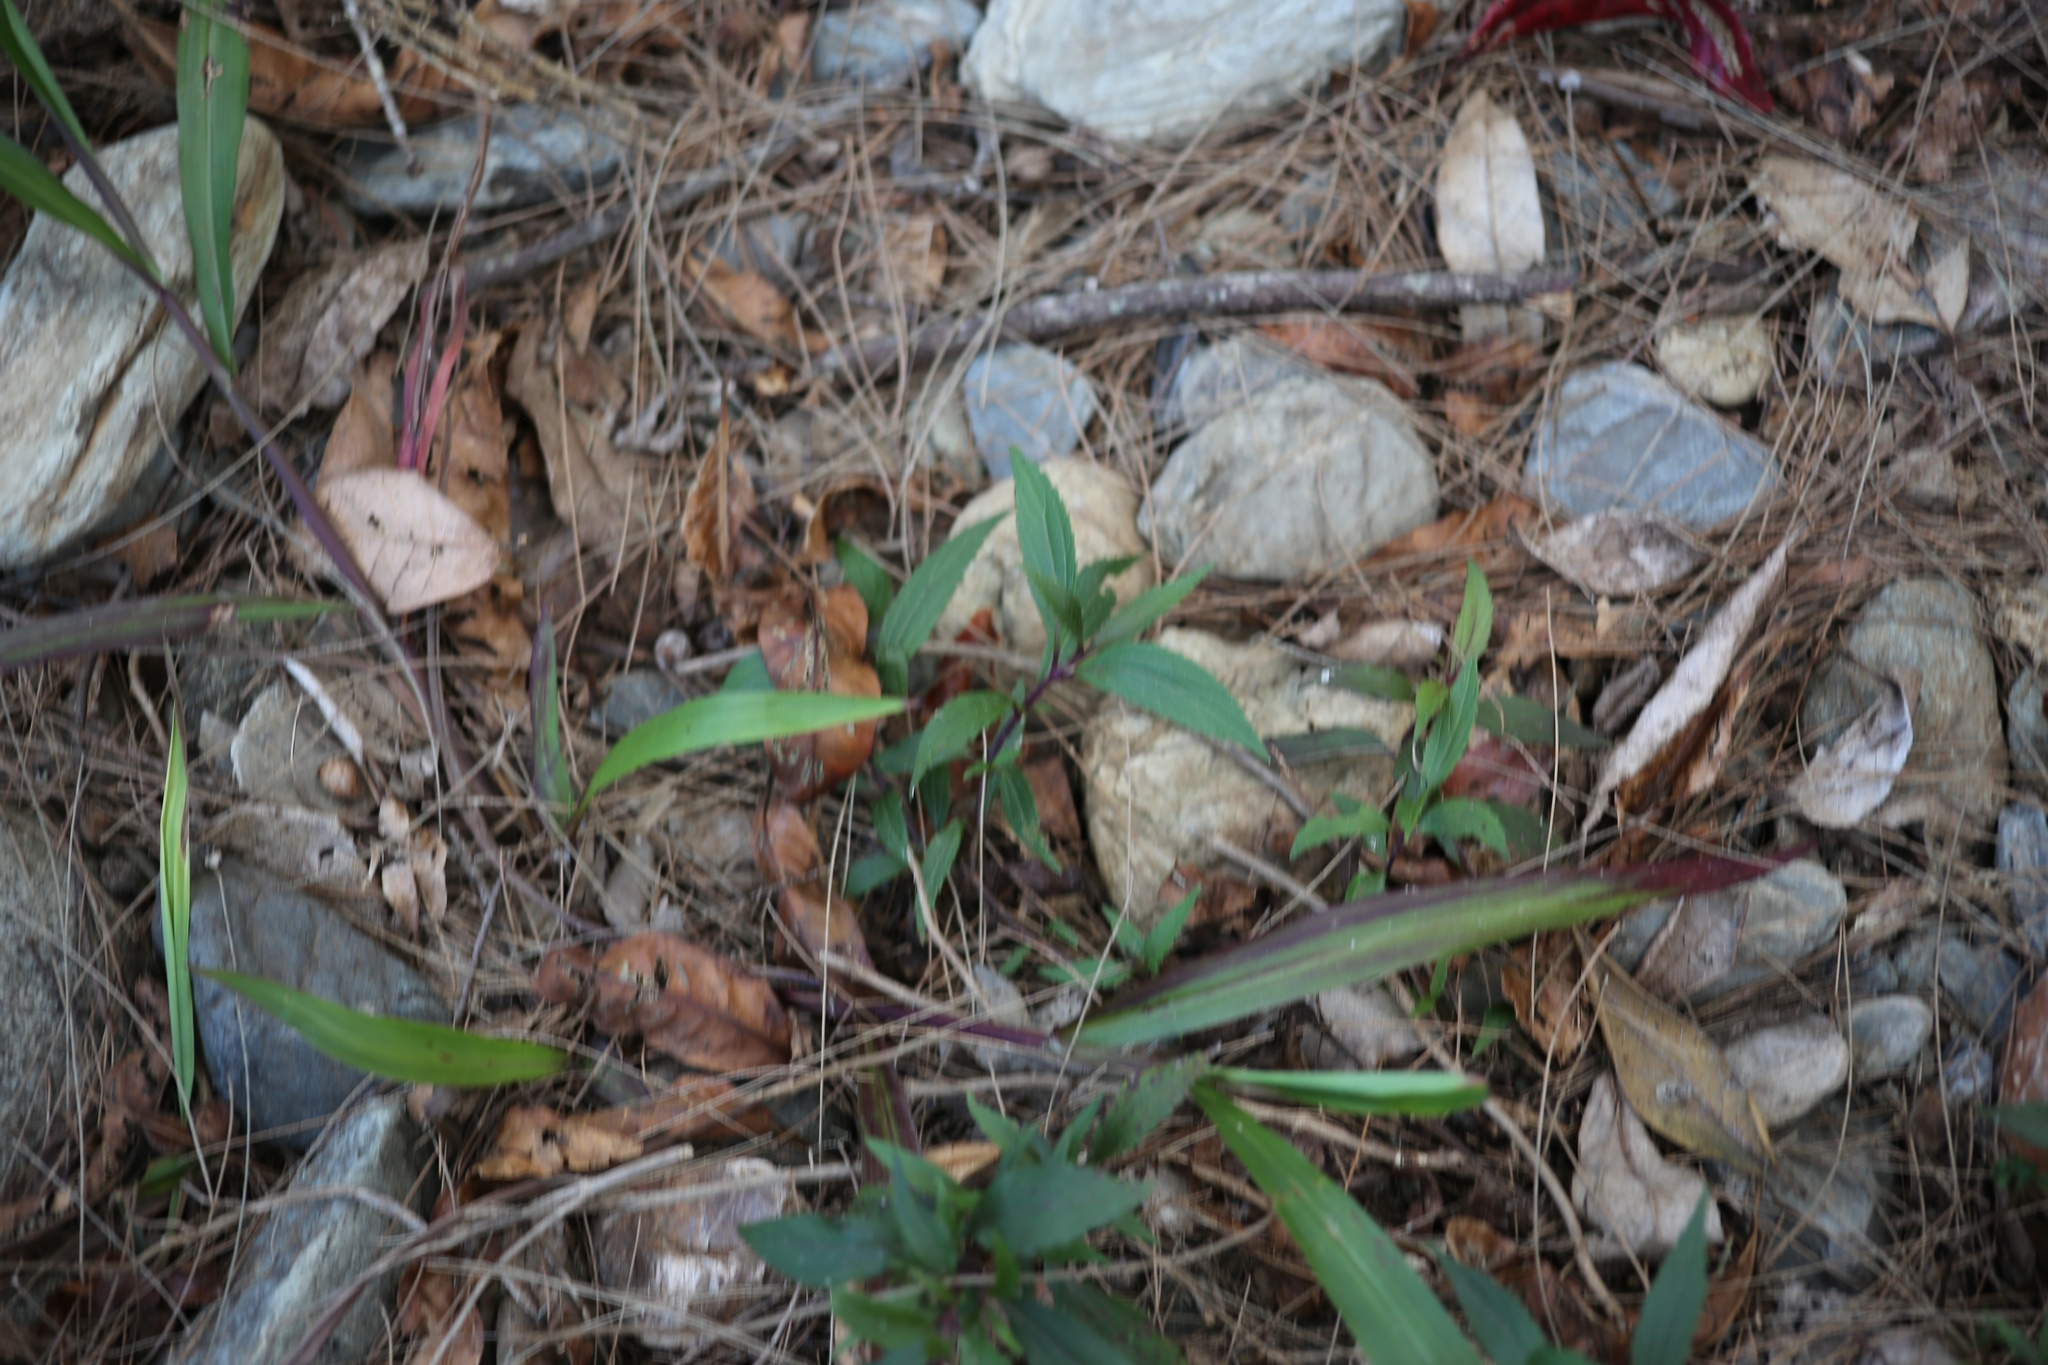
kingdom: Plantae
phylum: Tracheophyta
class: Magnoliopsida
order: Asterales
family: Asteraceae
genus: Ageratina
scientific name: Ageratina riparia
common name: Creeping croftonweed
